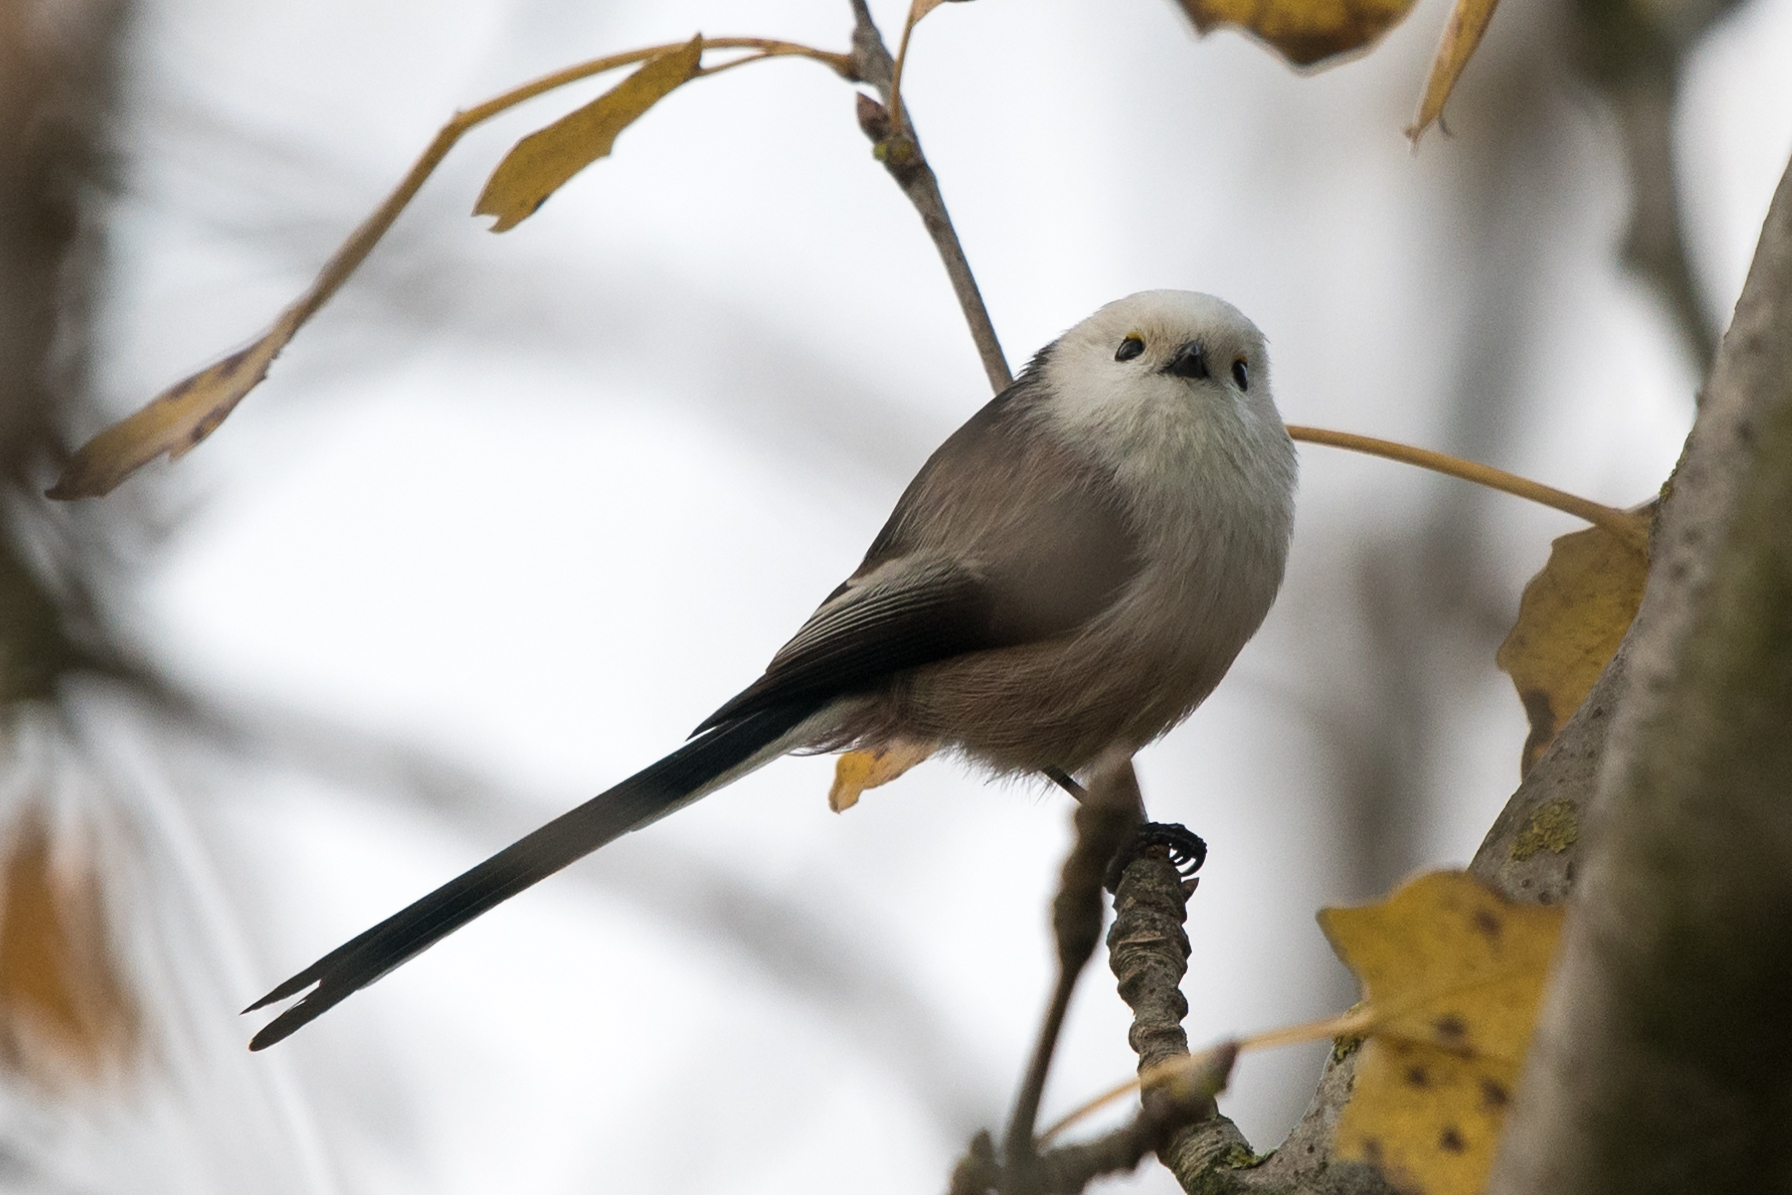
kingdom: Animalia
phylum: Chordata
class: Aves
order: Passeriformes
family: Aegithalidae
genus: Aegithalos
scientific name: Aegithalos caudatus
